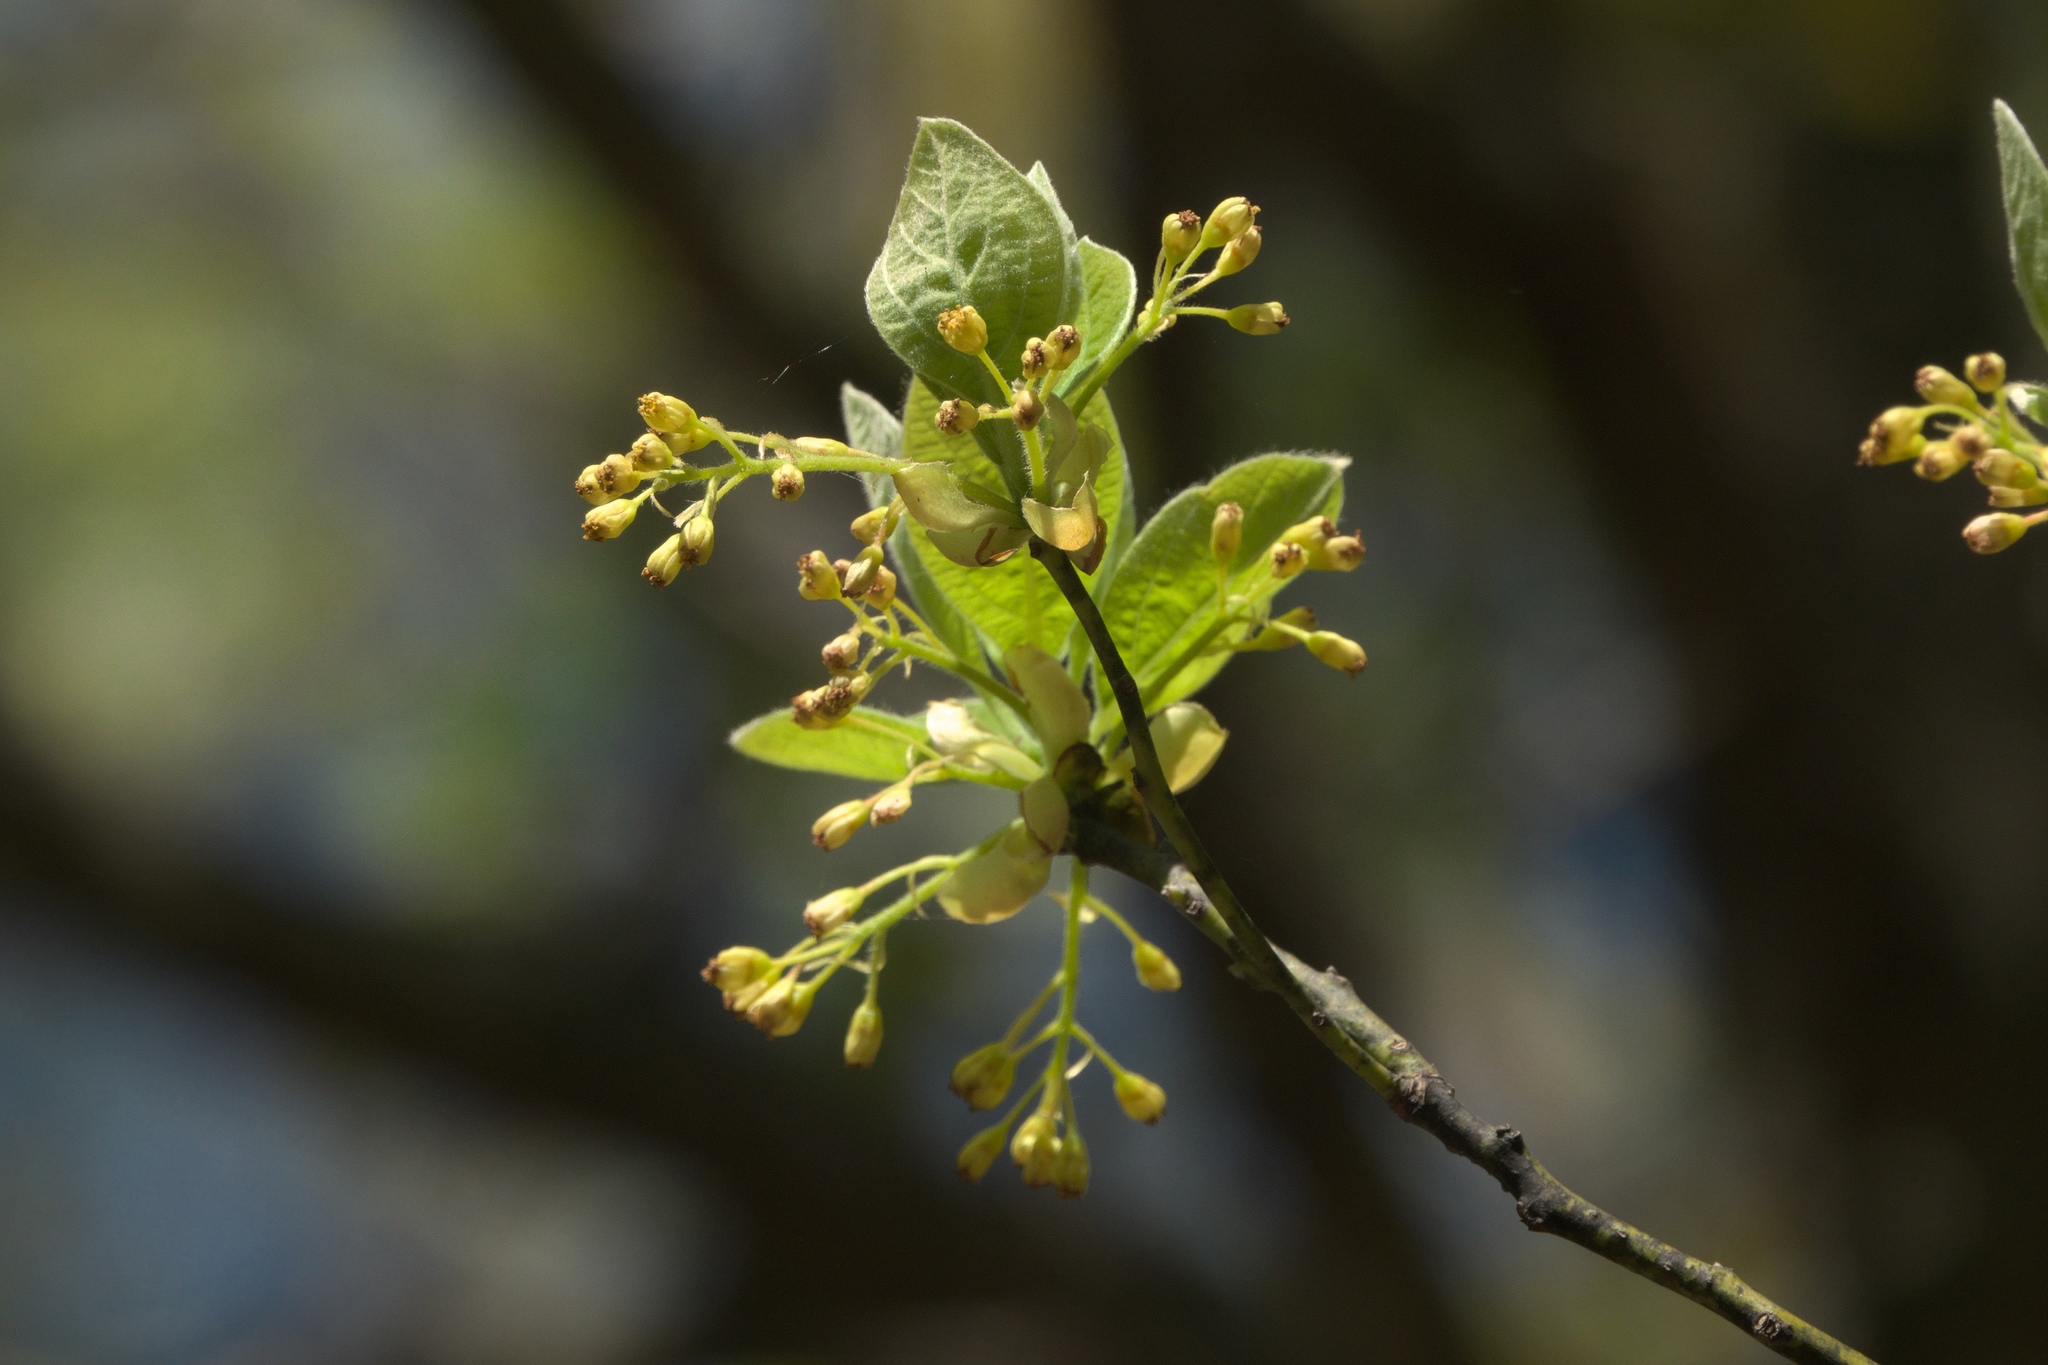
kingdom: Plantae
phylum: Tracheophyta
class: Magnoliopsida
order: Laurales
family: Lauraceae
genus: Sassafras
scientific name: Sassafras albidum
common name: Sassafras
